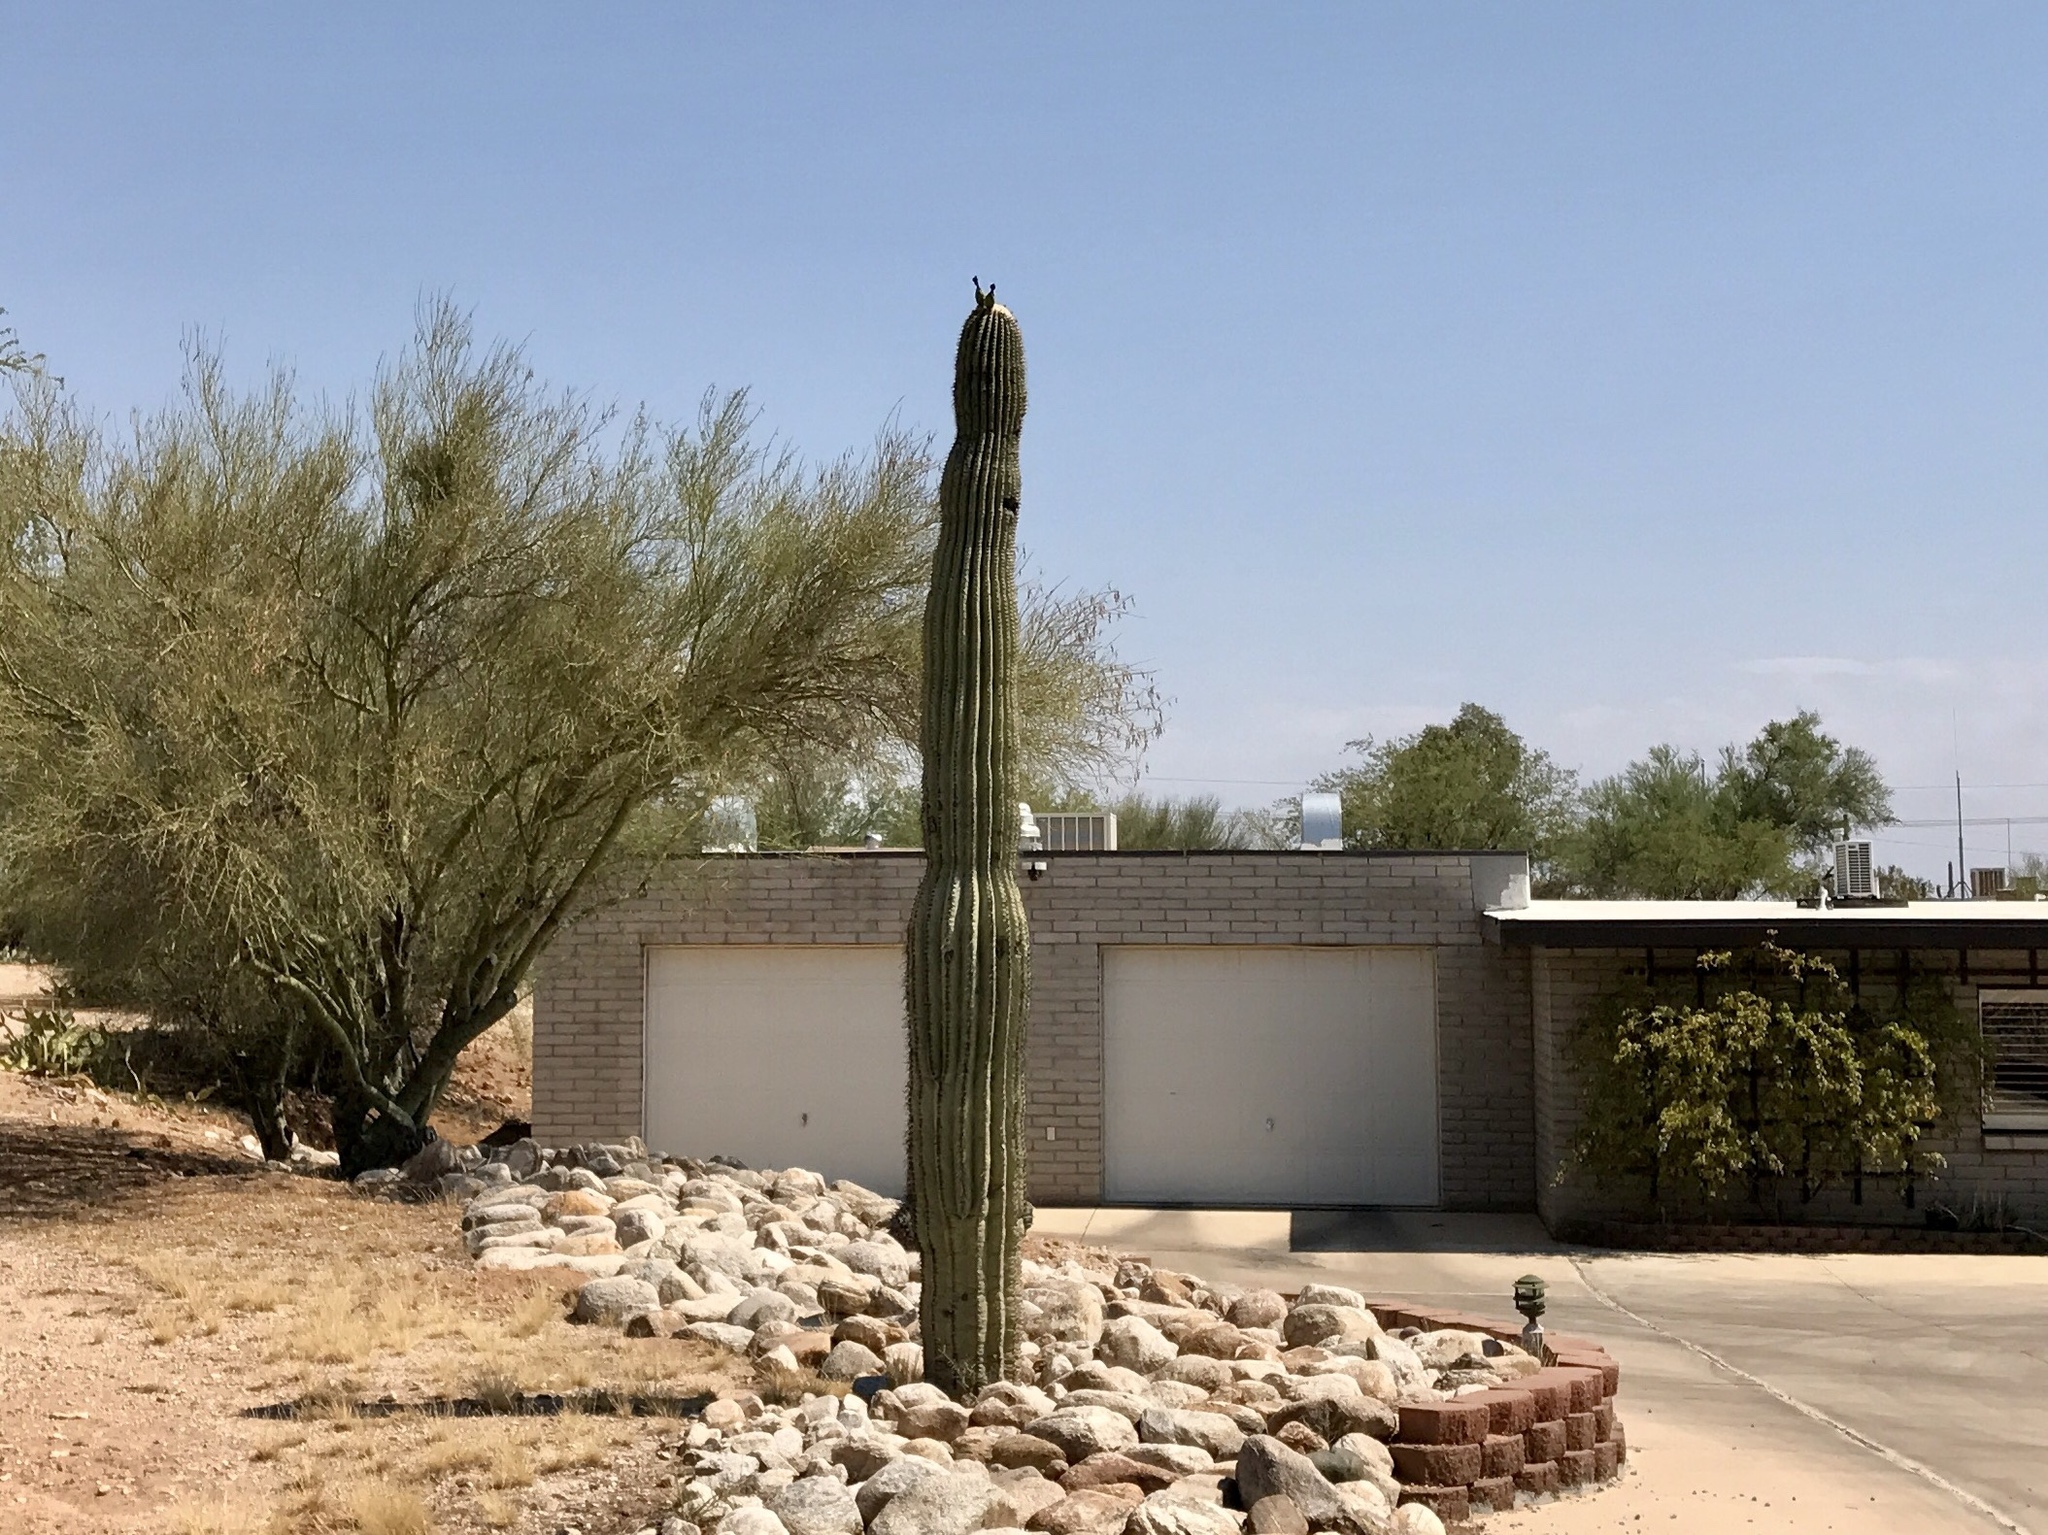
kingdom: Plantae
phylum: Tracheophyta
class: Magnoliopsida
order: Caryophyllales
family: Cactaceae
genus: Carnegiea
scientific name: Carnegiea gigantea
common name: Saguaro
